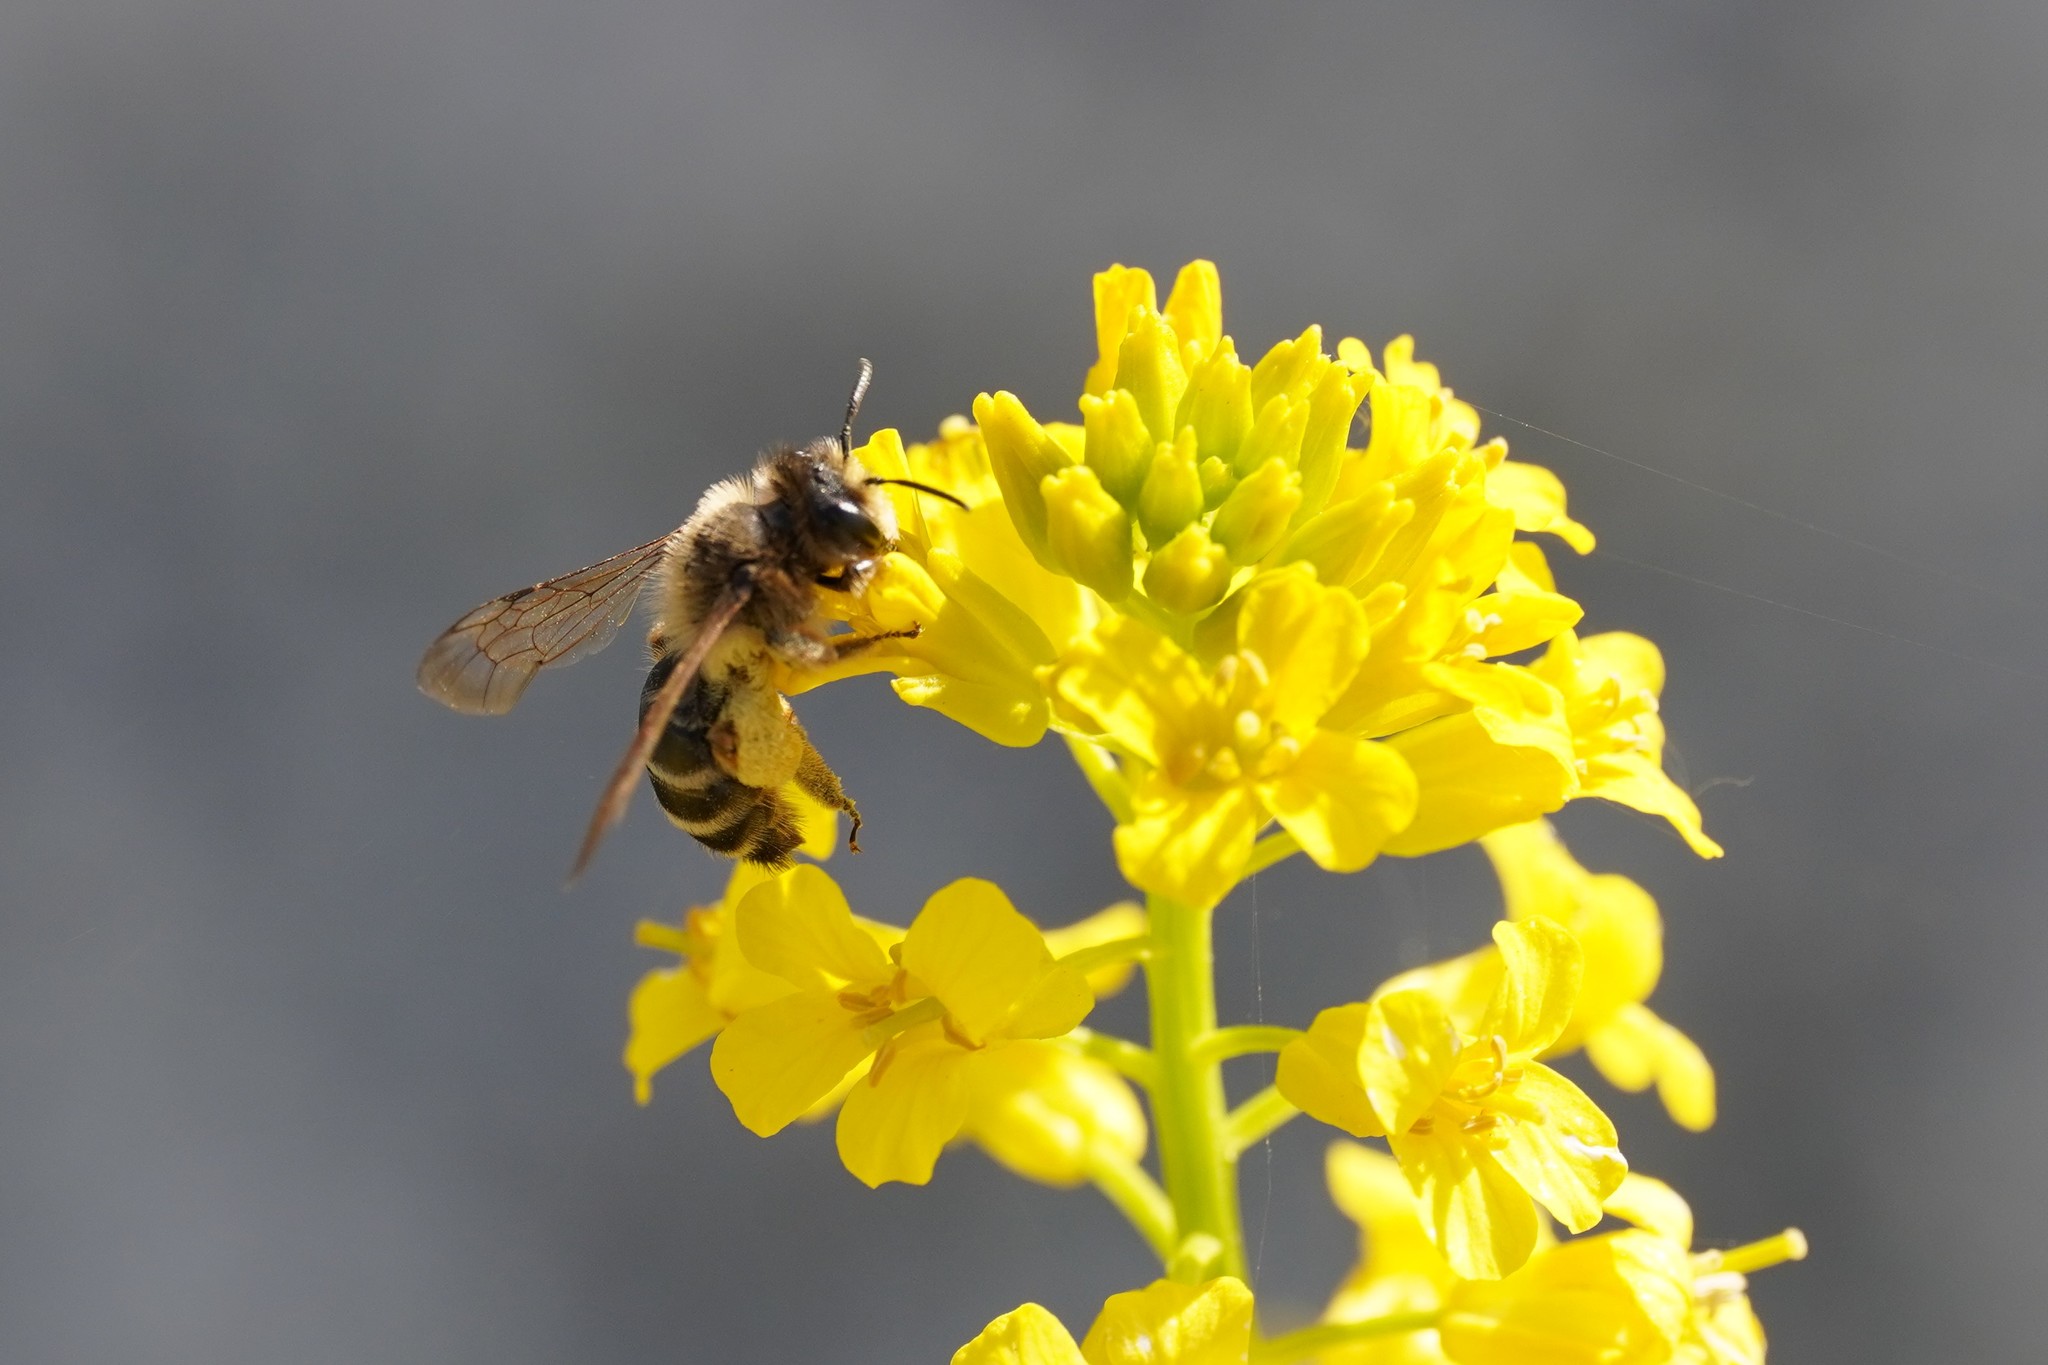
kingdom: Animalia
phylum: Arthropoda
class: Insecta
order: Hymenoptera
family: Andrenidae
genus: Andrena
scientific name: Andrena flavipes
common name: Yellow-legged mining bee
